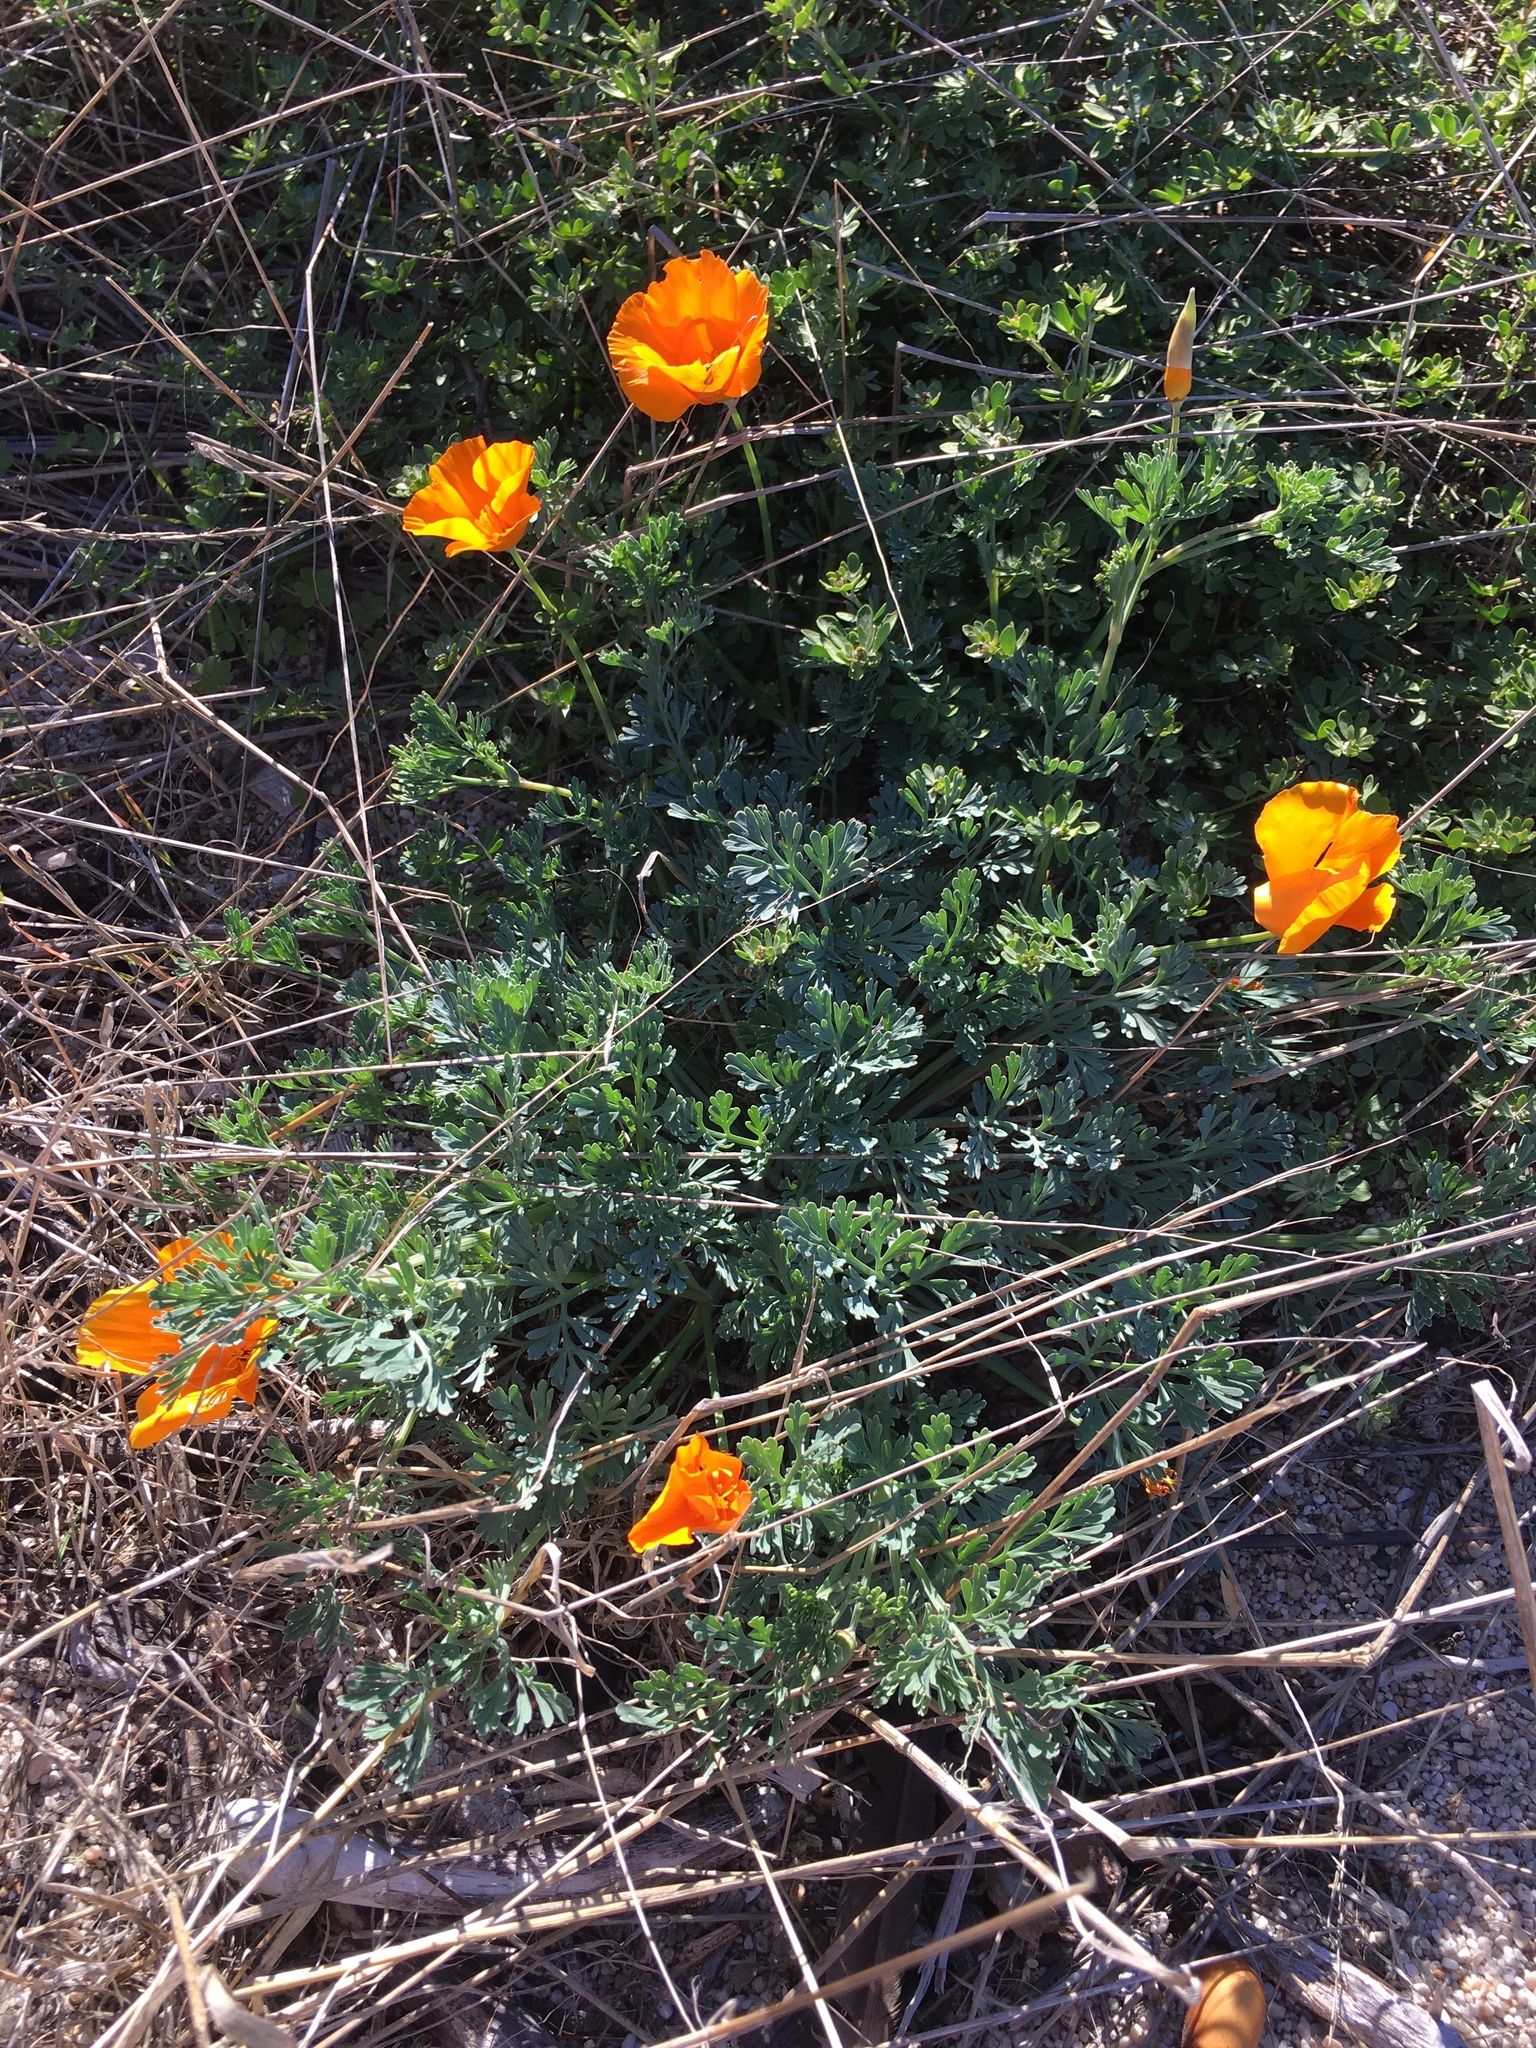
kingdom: Plantae
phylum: Tracheophyta
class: Magnoliopsida
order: Ranunculales
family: Papaveraceae
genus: Eschscholzia
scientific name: Eschscholzia californica
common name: California poppy
